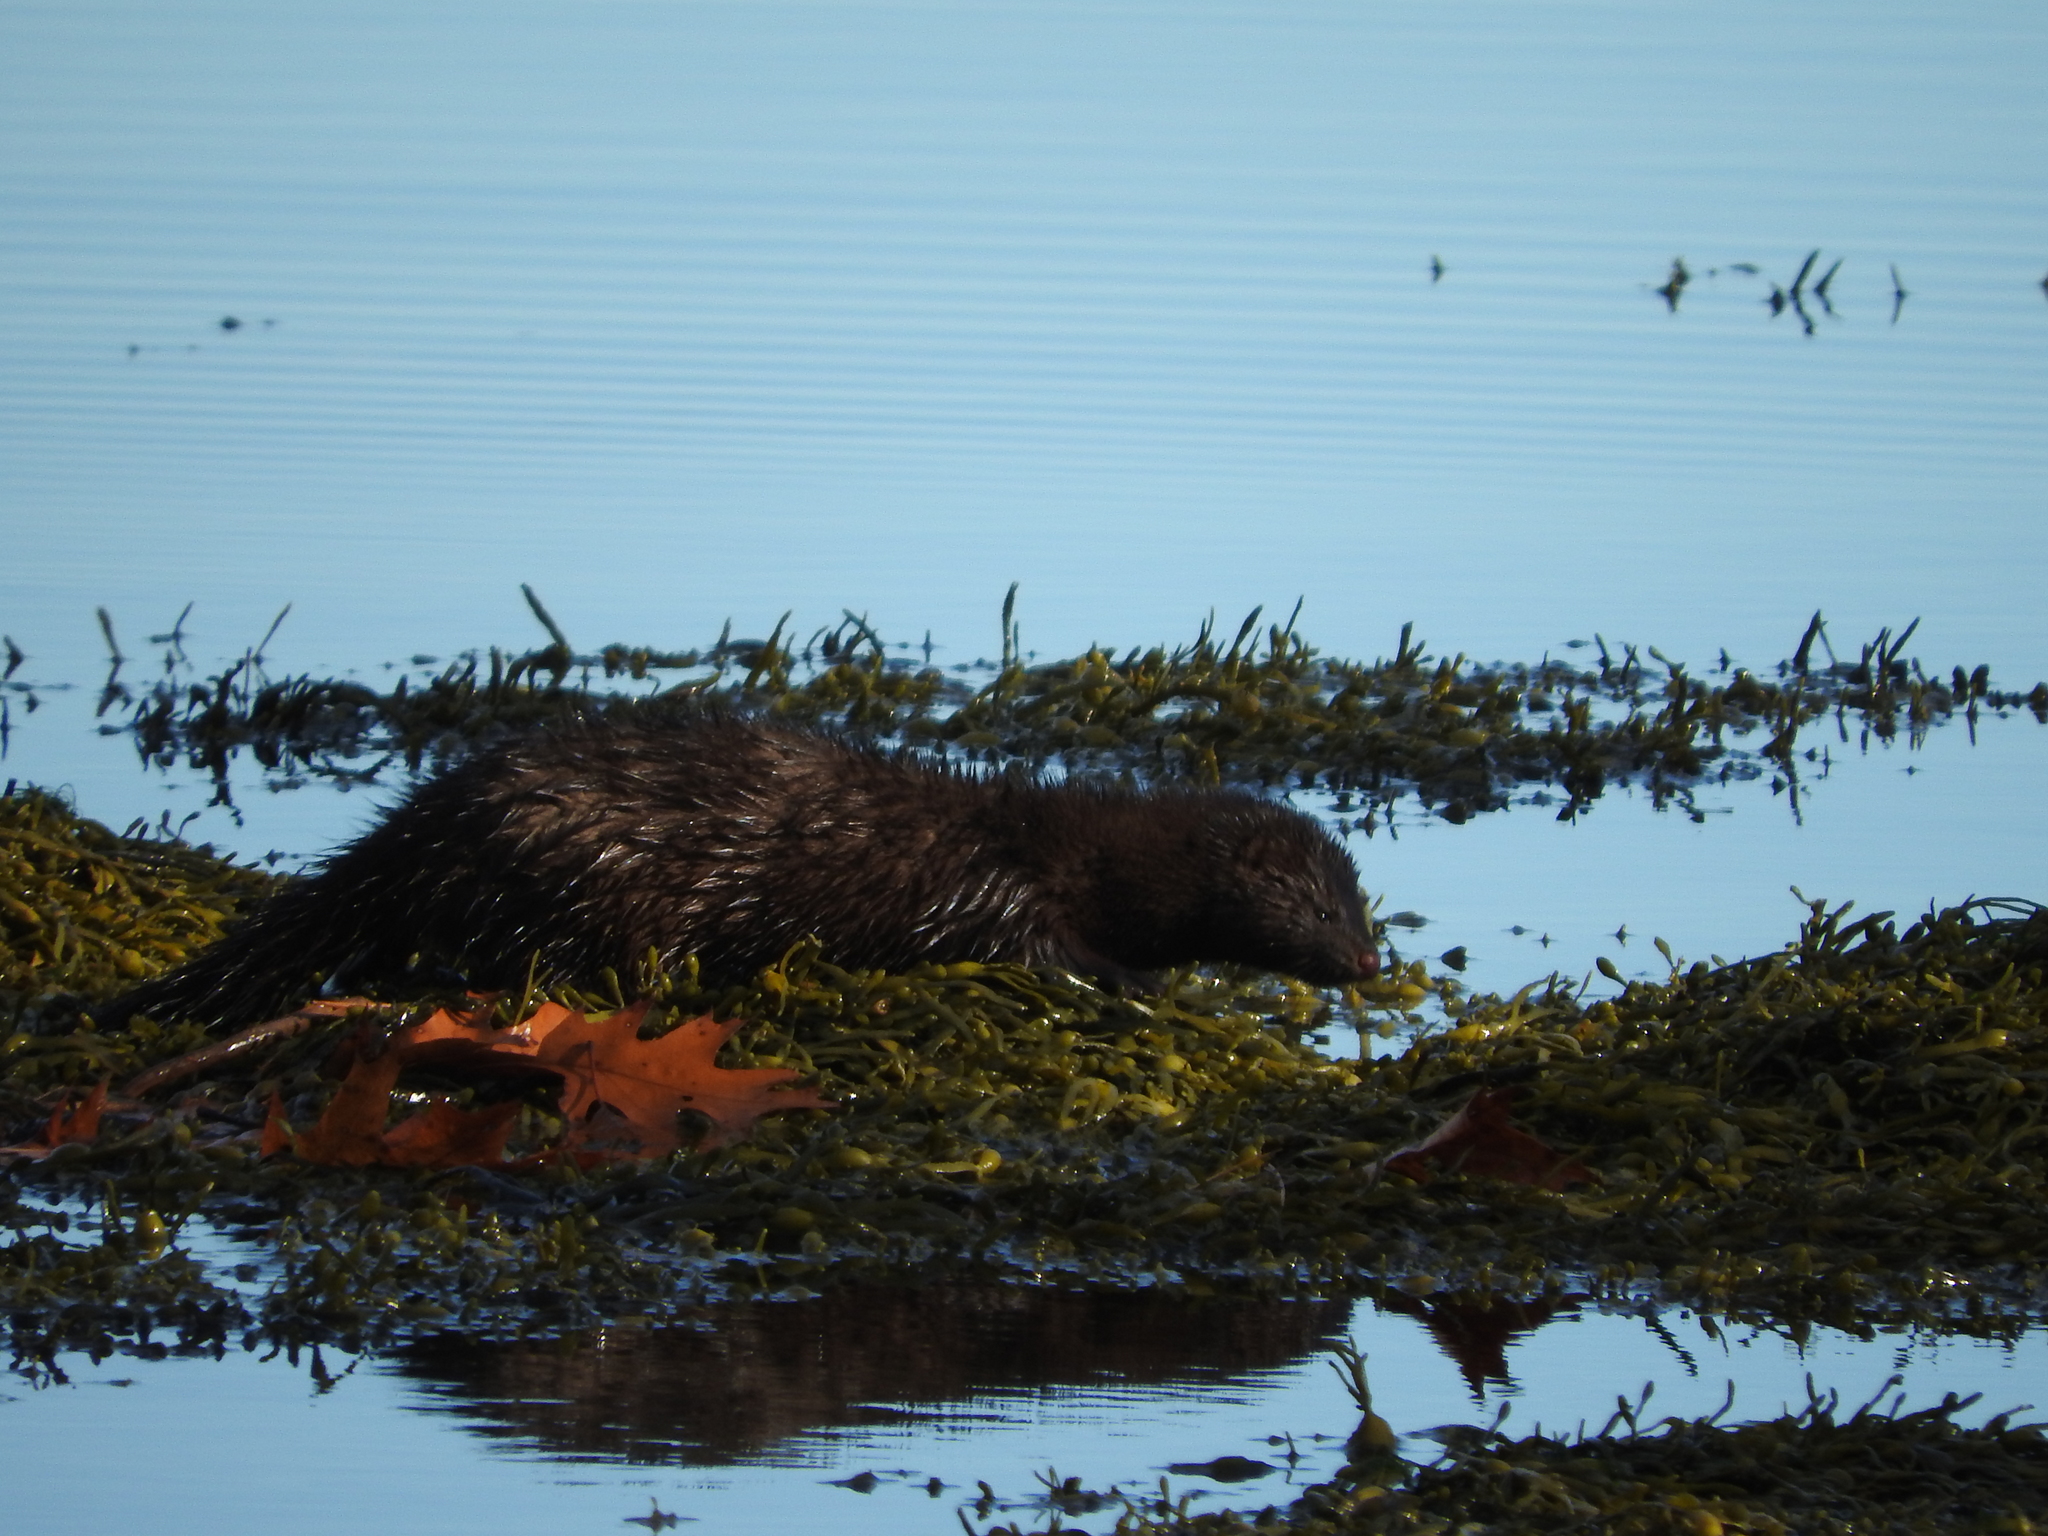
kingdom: Animalia
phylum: Chordata
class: Mammalia
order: Carnivora
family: Mustelidae
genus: Mustela
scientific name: Mustela
